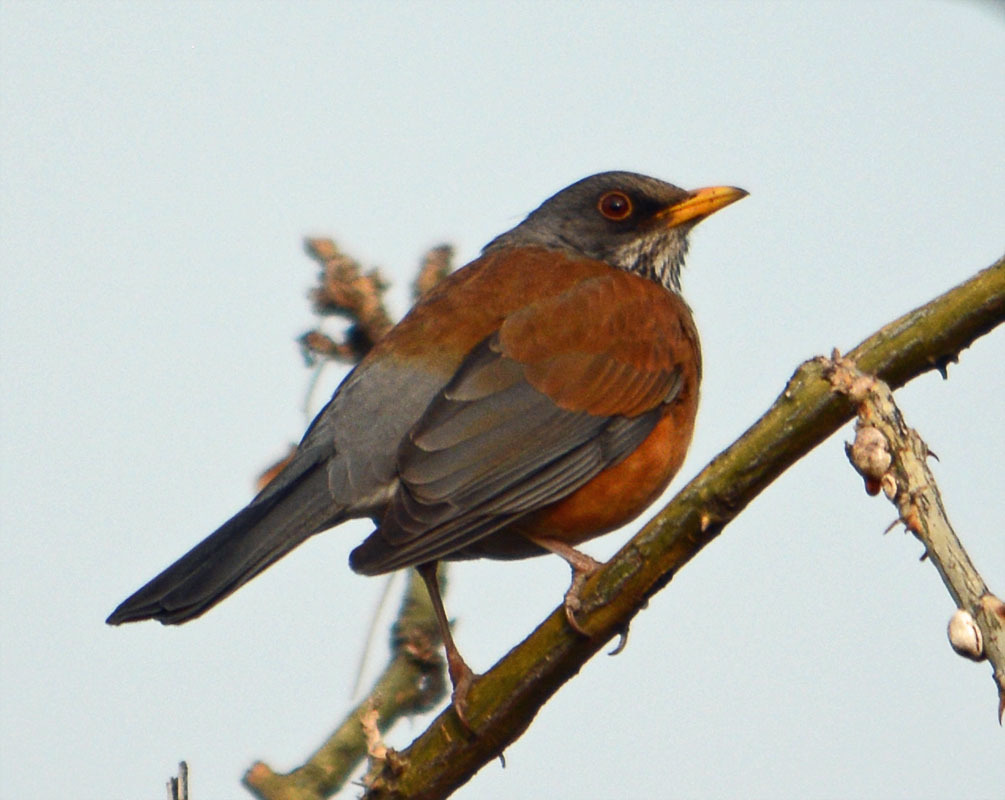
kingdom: Animalia
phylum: Chordata
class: Aves
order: Passeriformes
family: Turdidae
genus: Turdus
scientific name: Turdus rufopalliatus
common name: Rufous-backed robin
